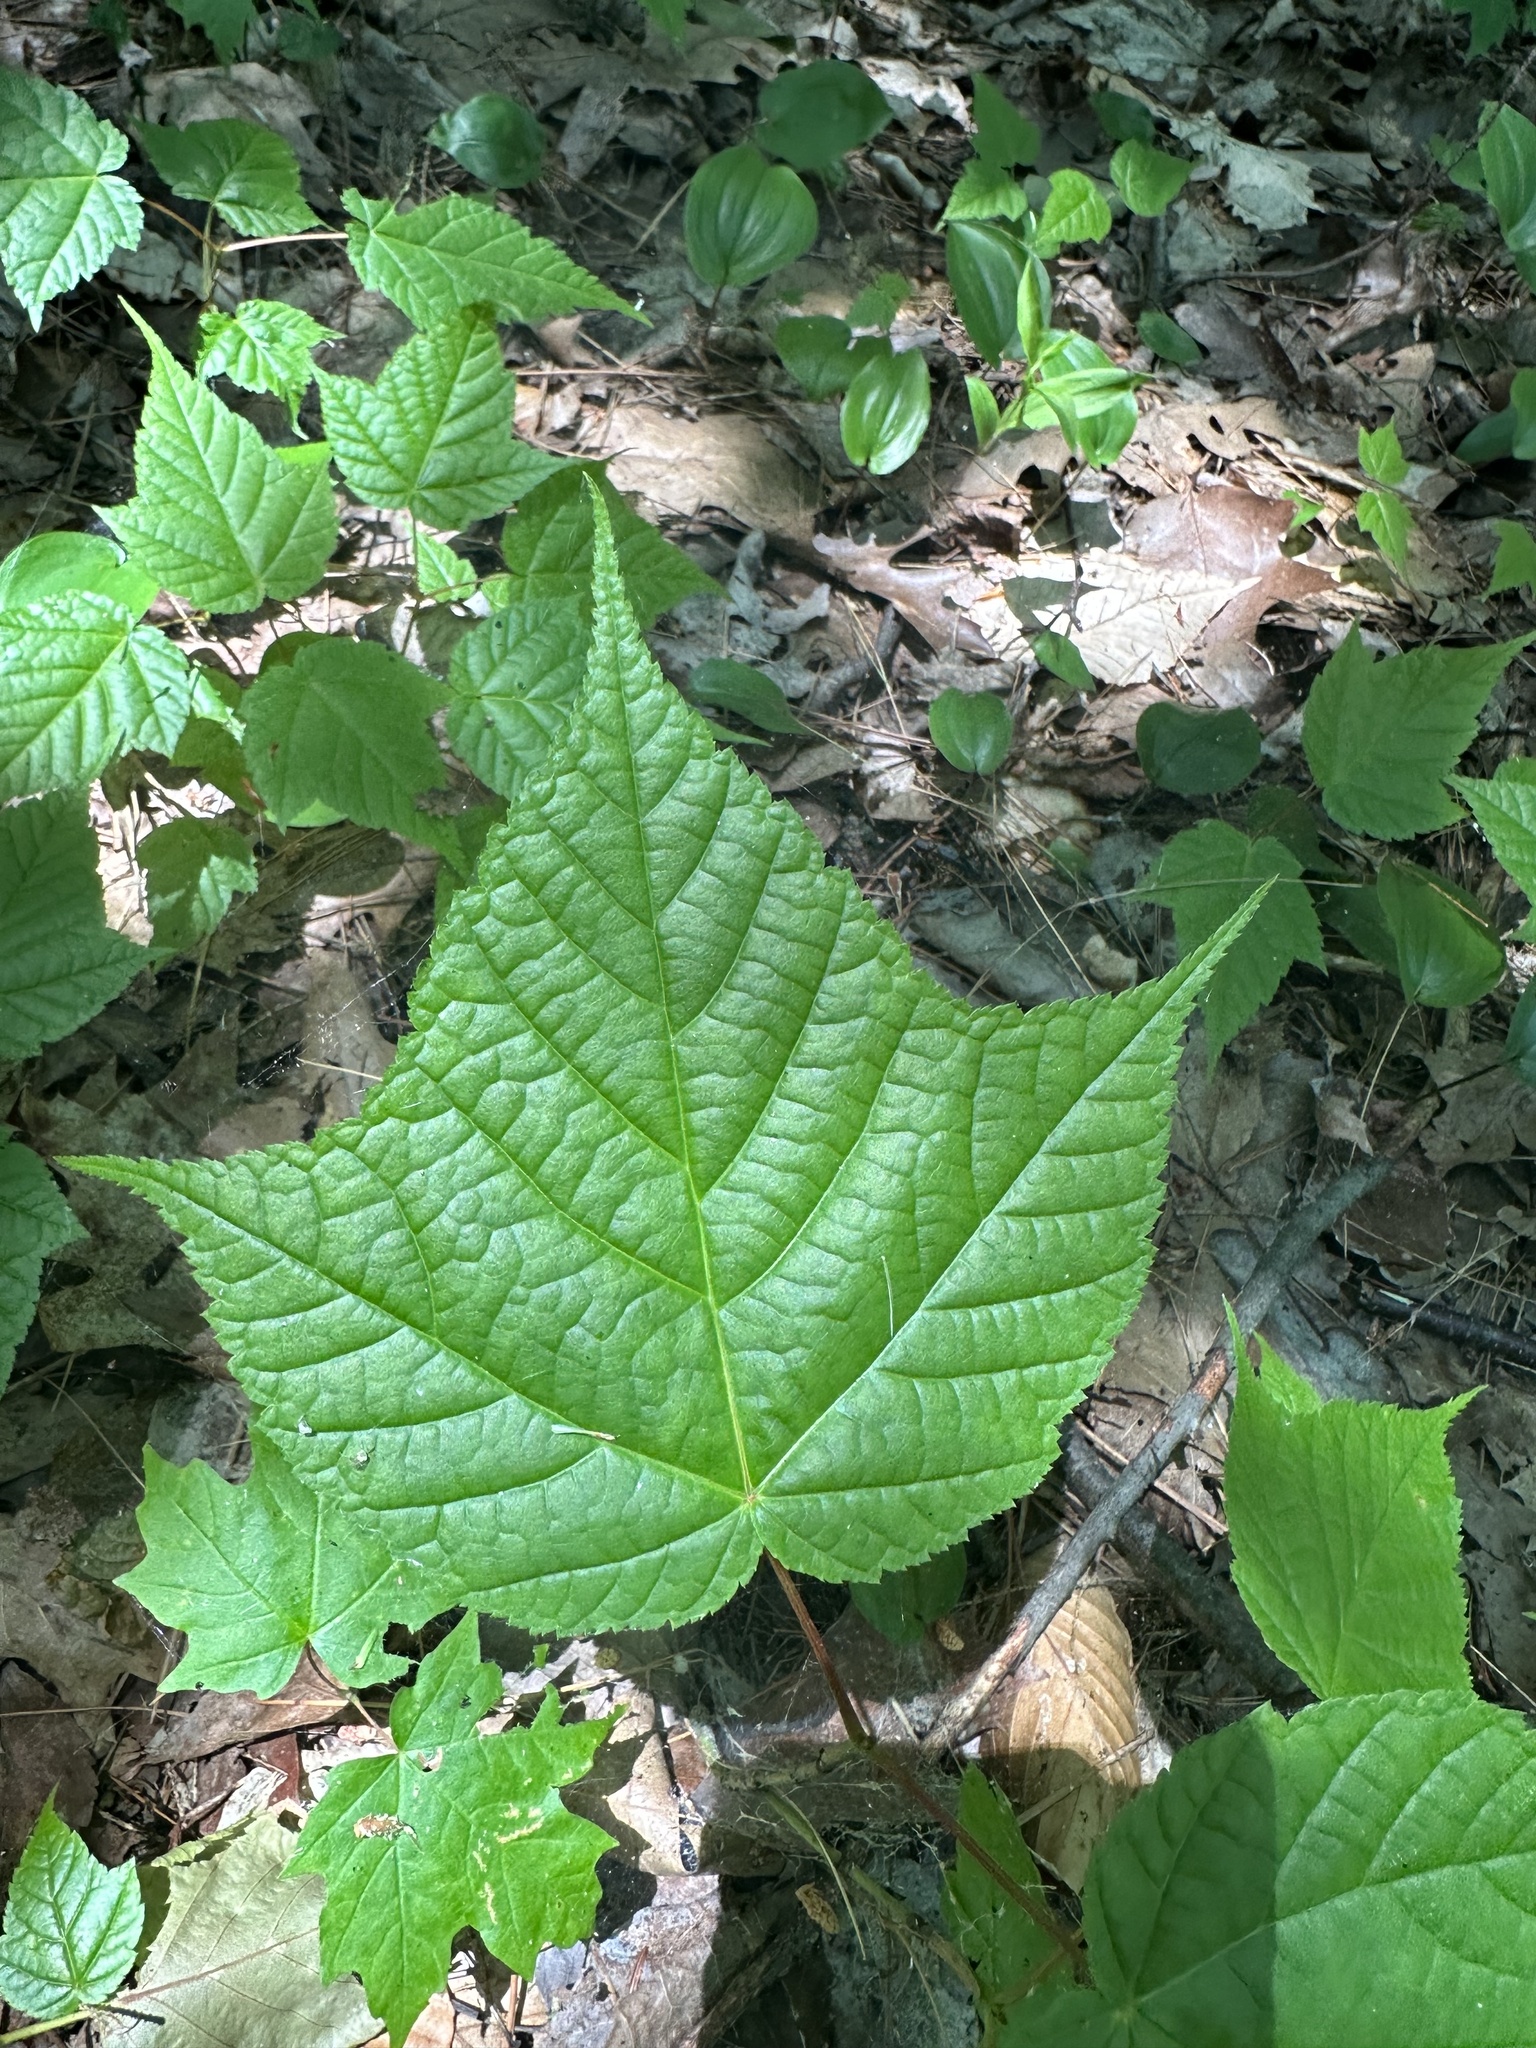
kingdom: Plantae
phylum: Tracheophyta
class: Magnoliopsida
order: Sapindales
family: Sapindaceae
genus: Acer
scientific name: Acer pensylvanicum
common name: Moosewood
